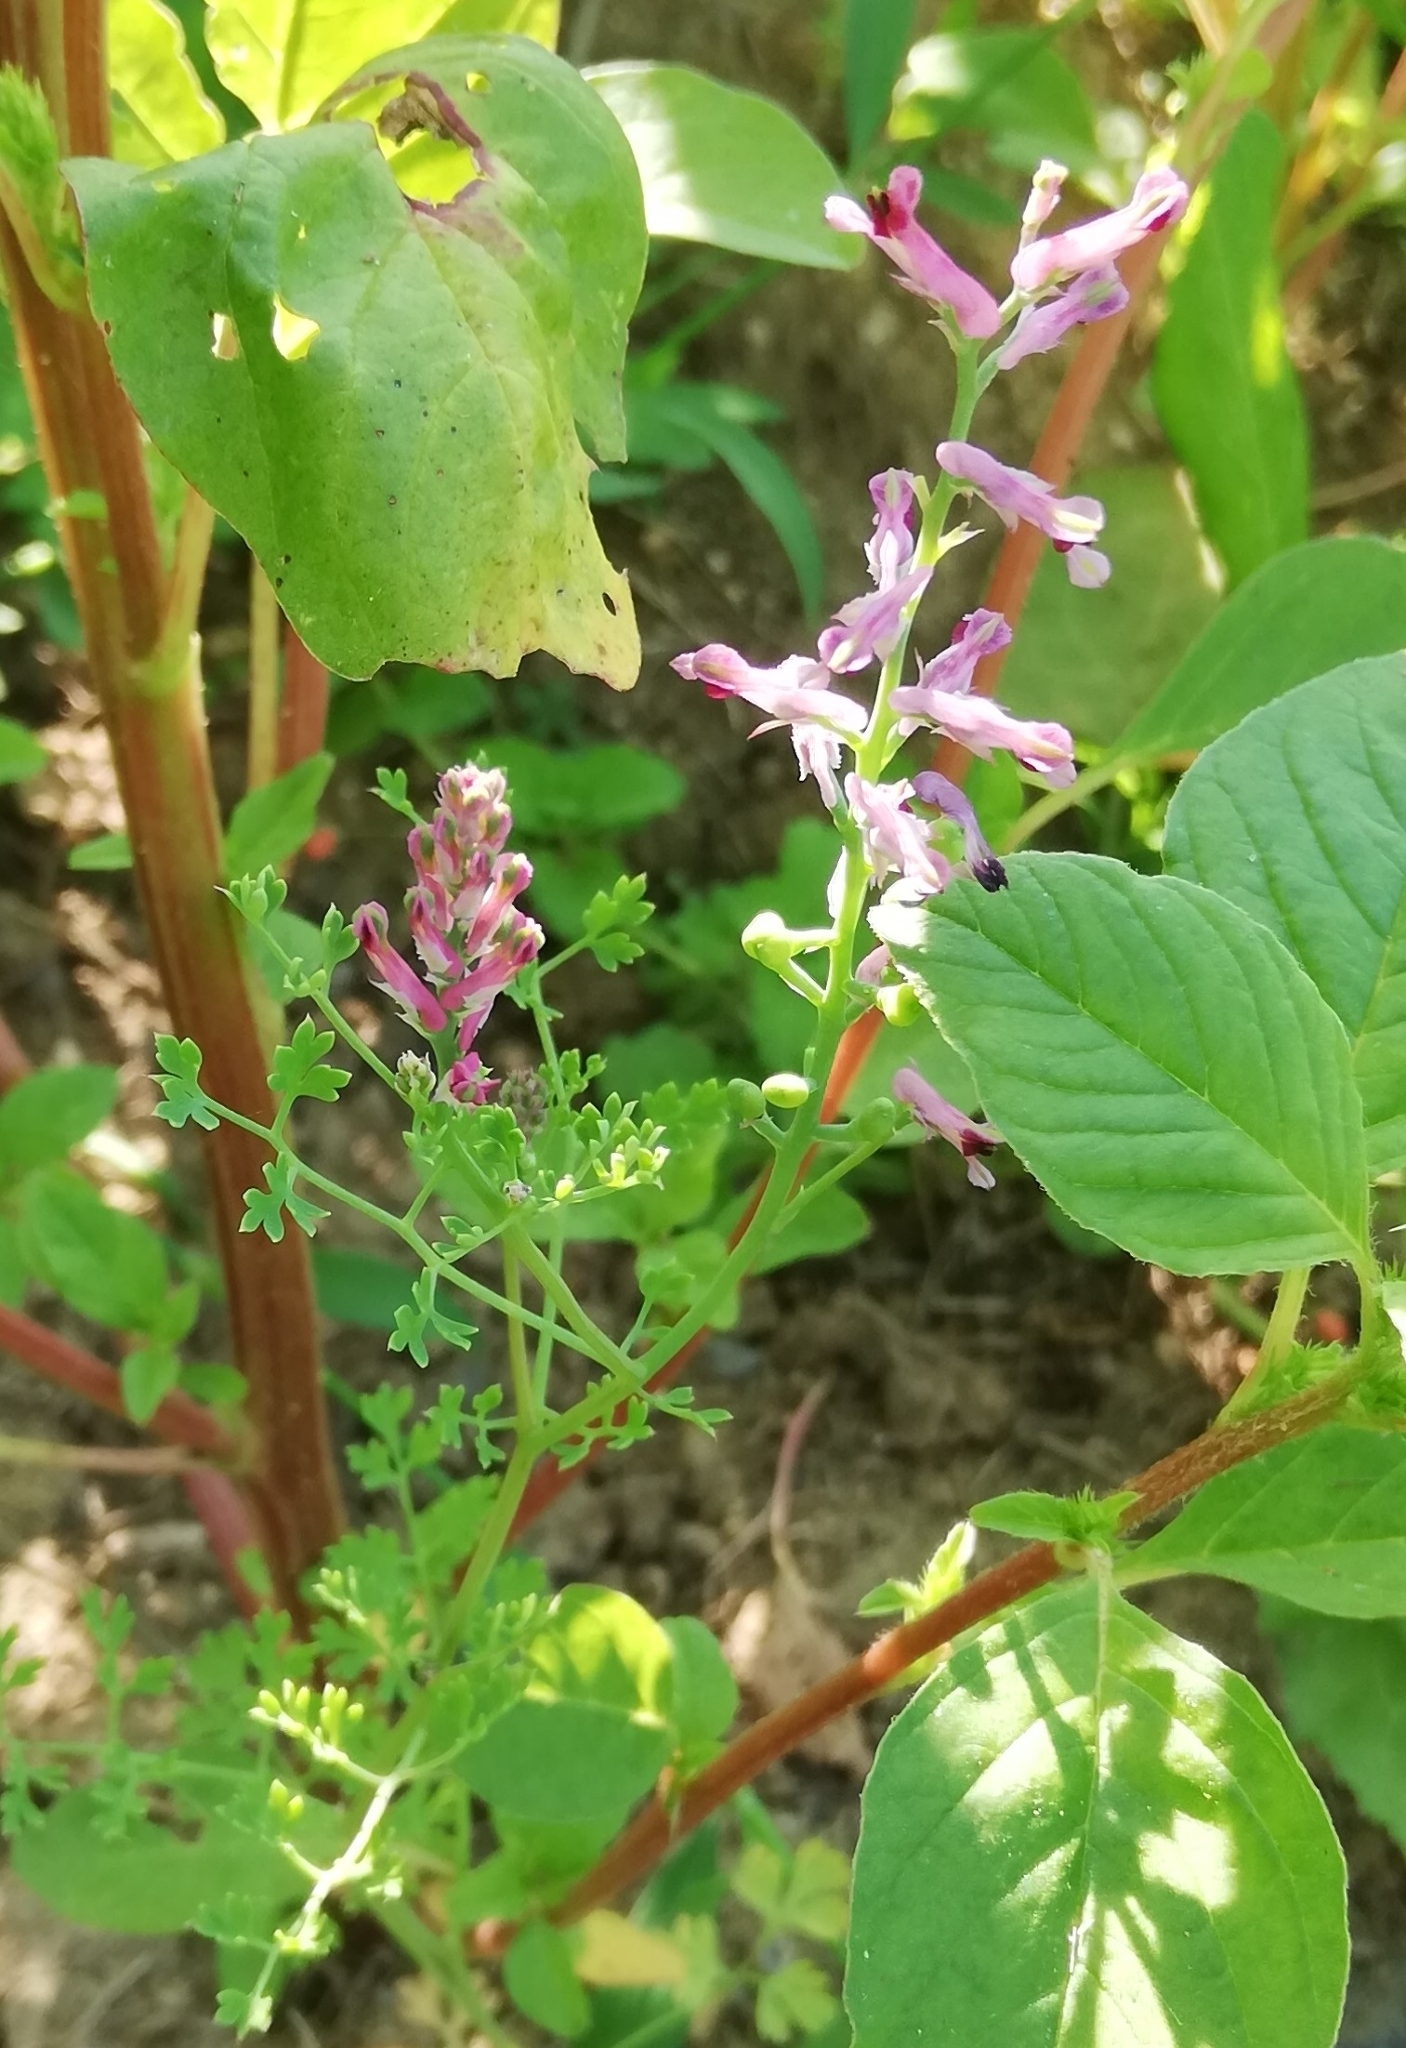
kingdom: Plantae
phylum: Tracheophyta
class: Magnoliopsida
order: Ranunculales
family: Papaveraceae
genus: Fumaria
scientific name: Fumaria officinalis
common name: Common fumitory
